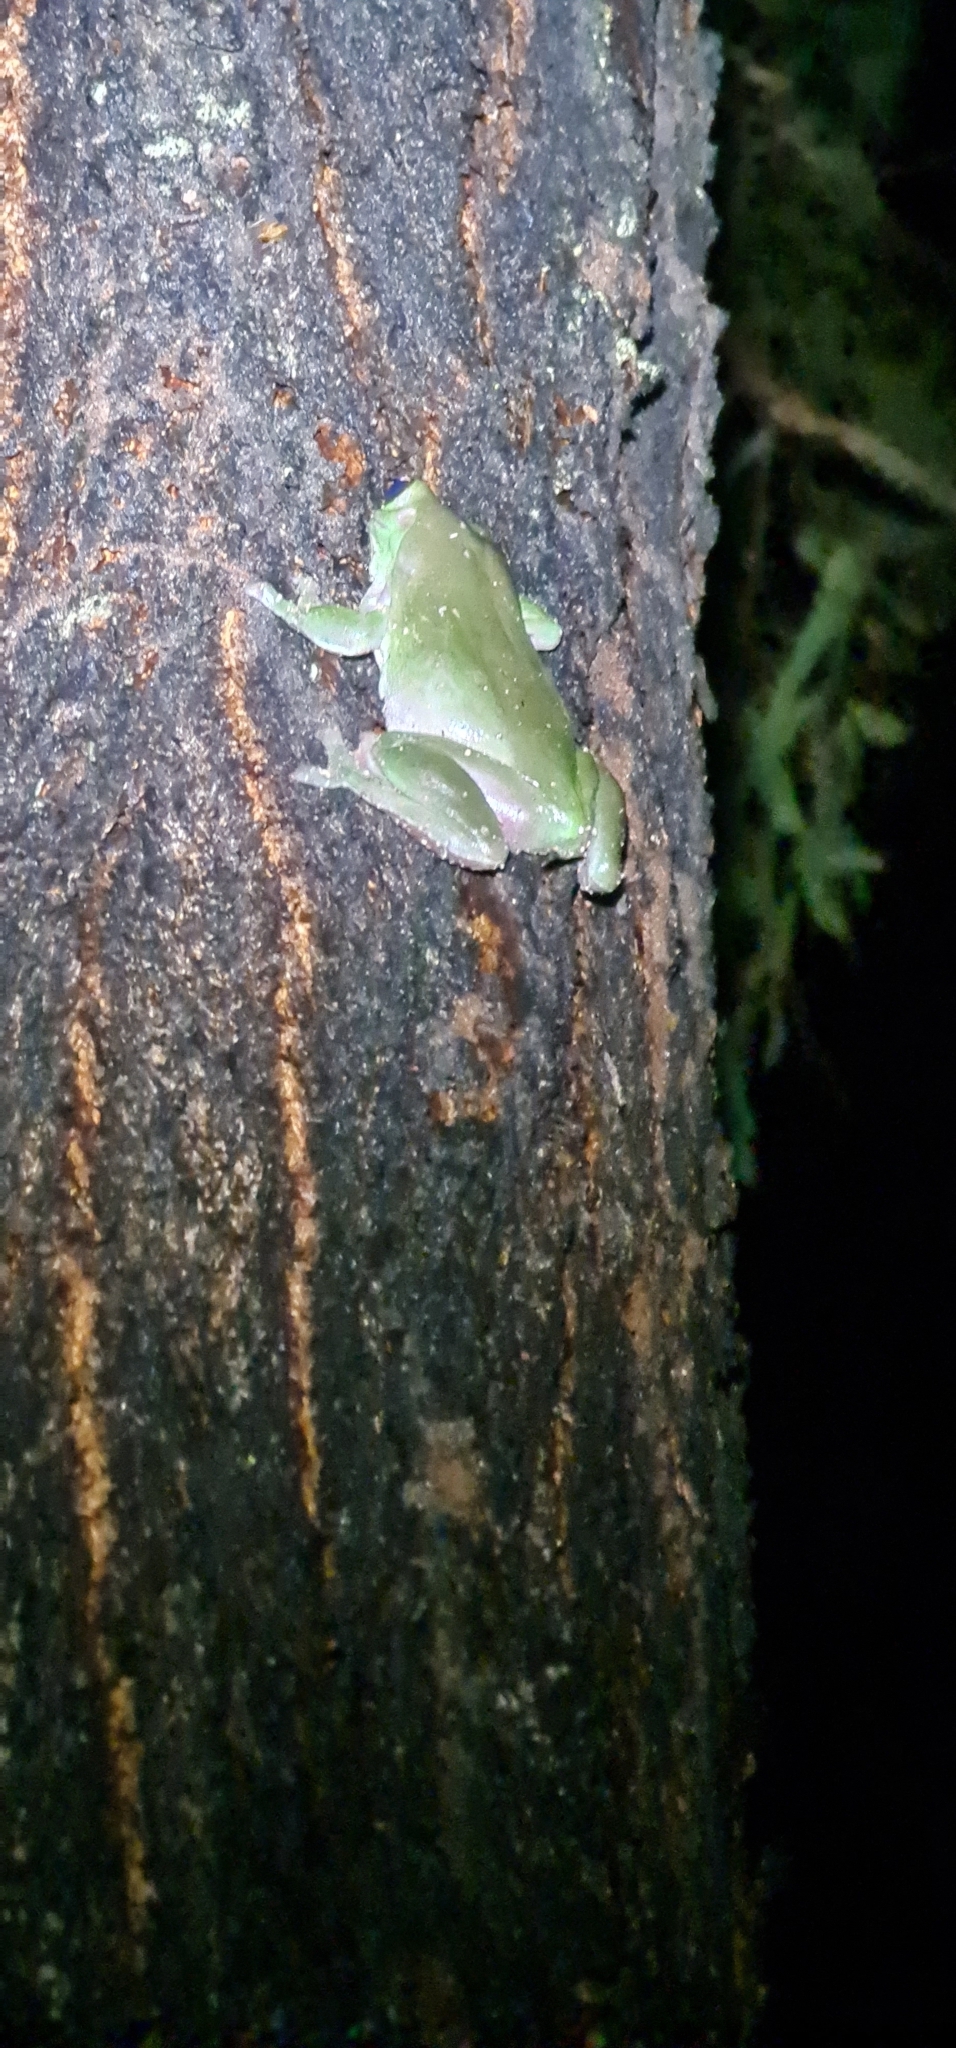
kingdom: Animalia
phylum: Chordata
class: Amphibia
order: Anura
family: Pelodryadidae
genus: Ranoidea
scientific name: Ranoidea caerulea
